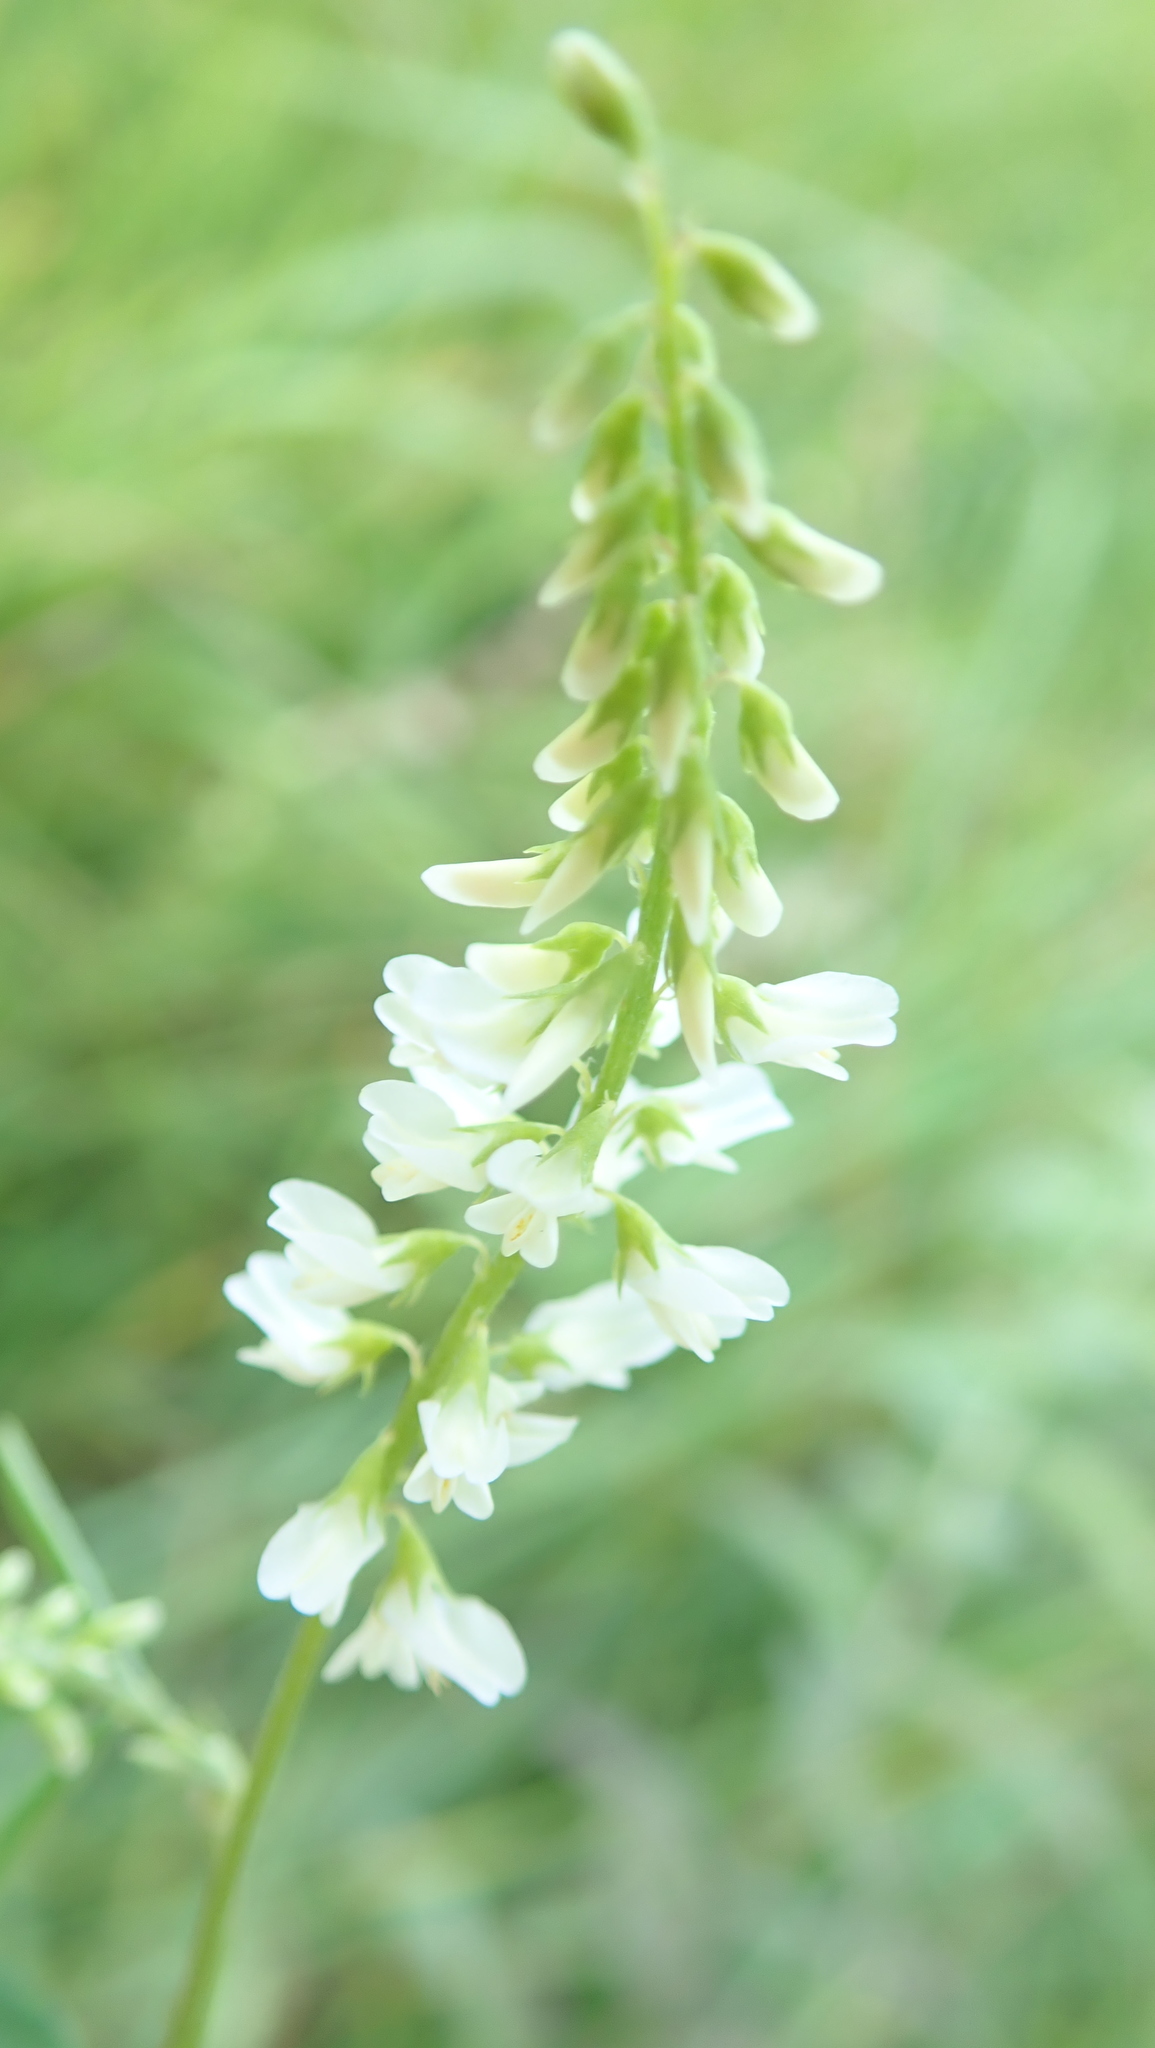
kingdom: Plantae
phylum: Tracheophyta
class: Magnoliopsida
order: Fabales
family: Fabaceae
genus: Melilotus
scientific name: Melilotus albus
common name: White melilot
